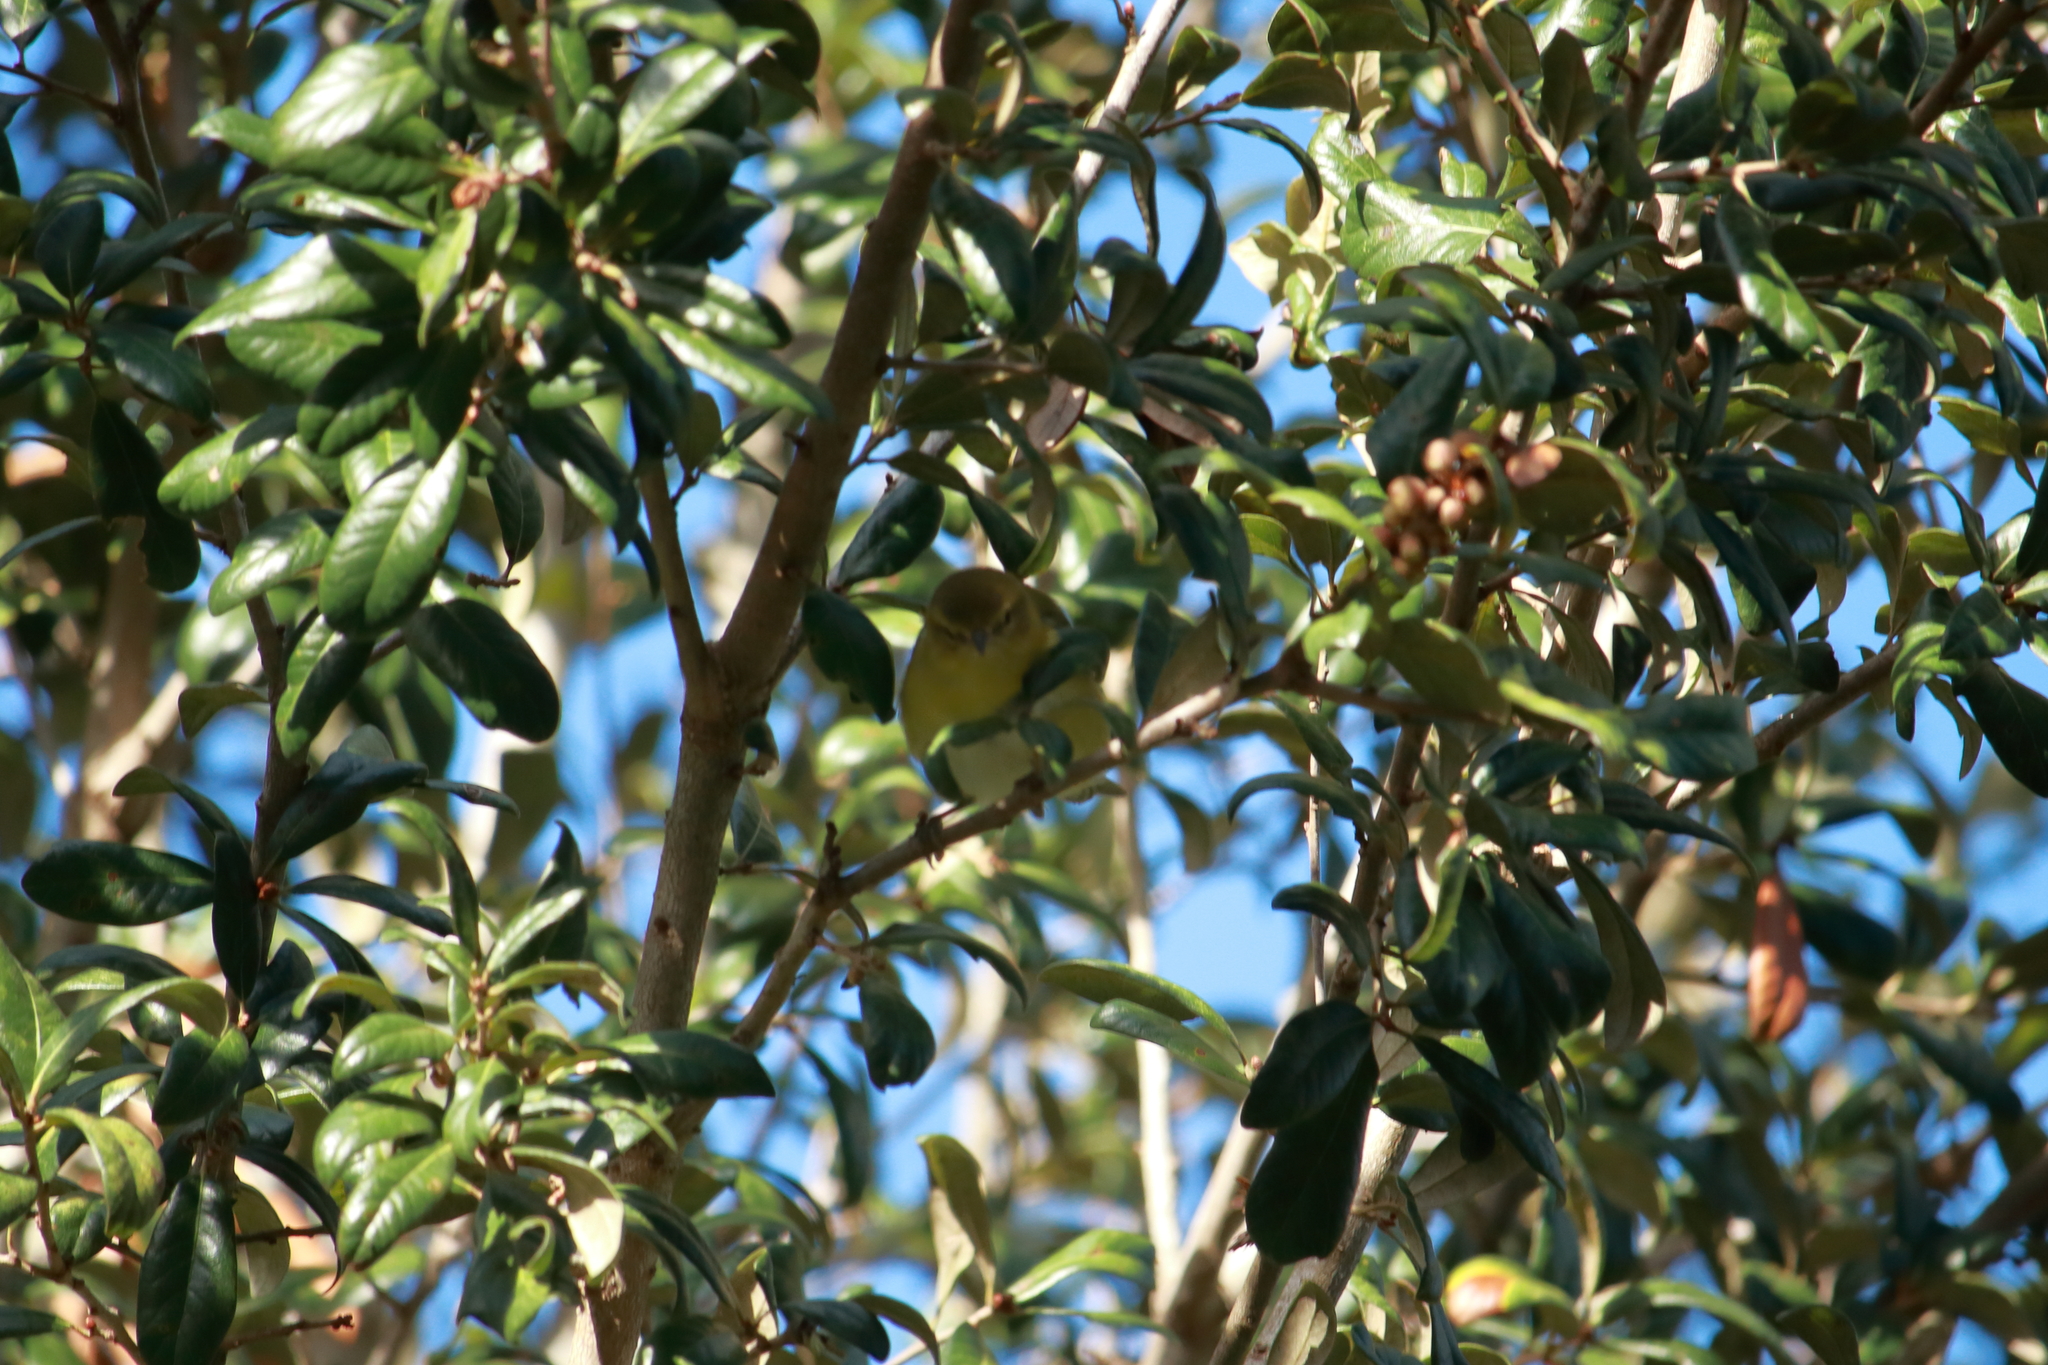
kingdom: Animalia
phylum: Chordata
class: Aves
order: Passeriformes
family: Parulidae
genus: Setophaga
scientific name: Setophaga pinus
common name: Pine warbler
